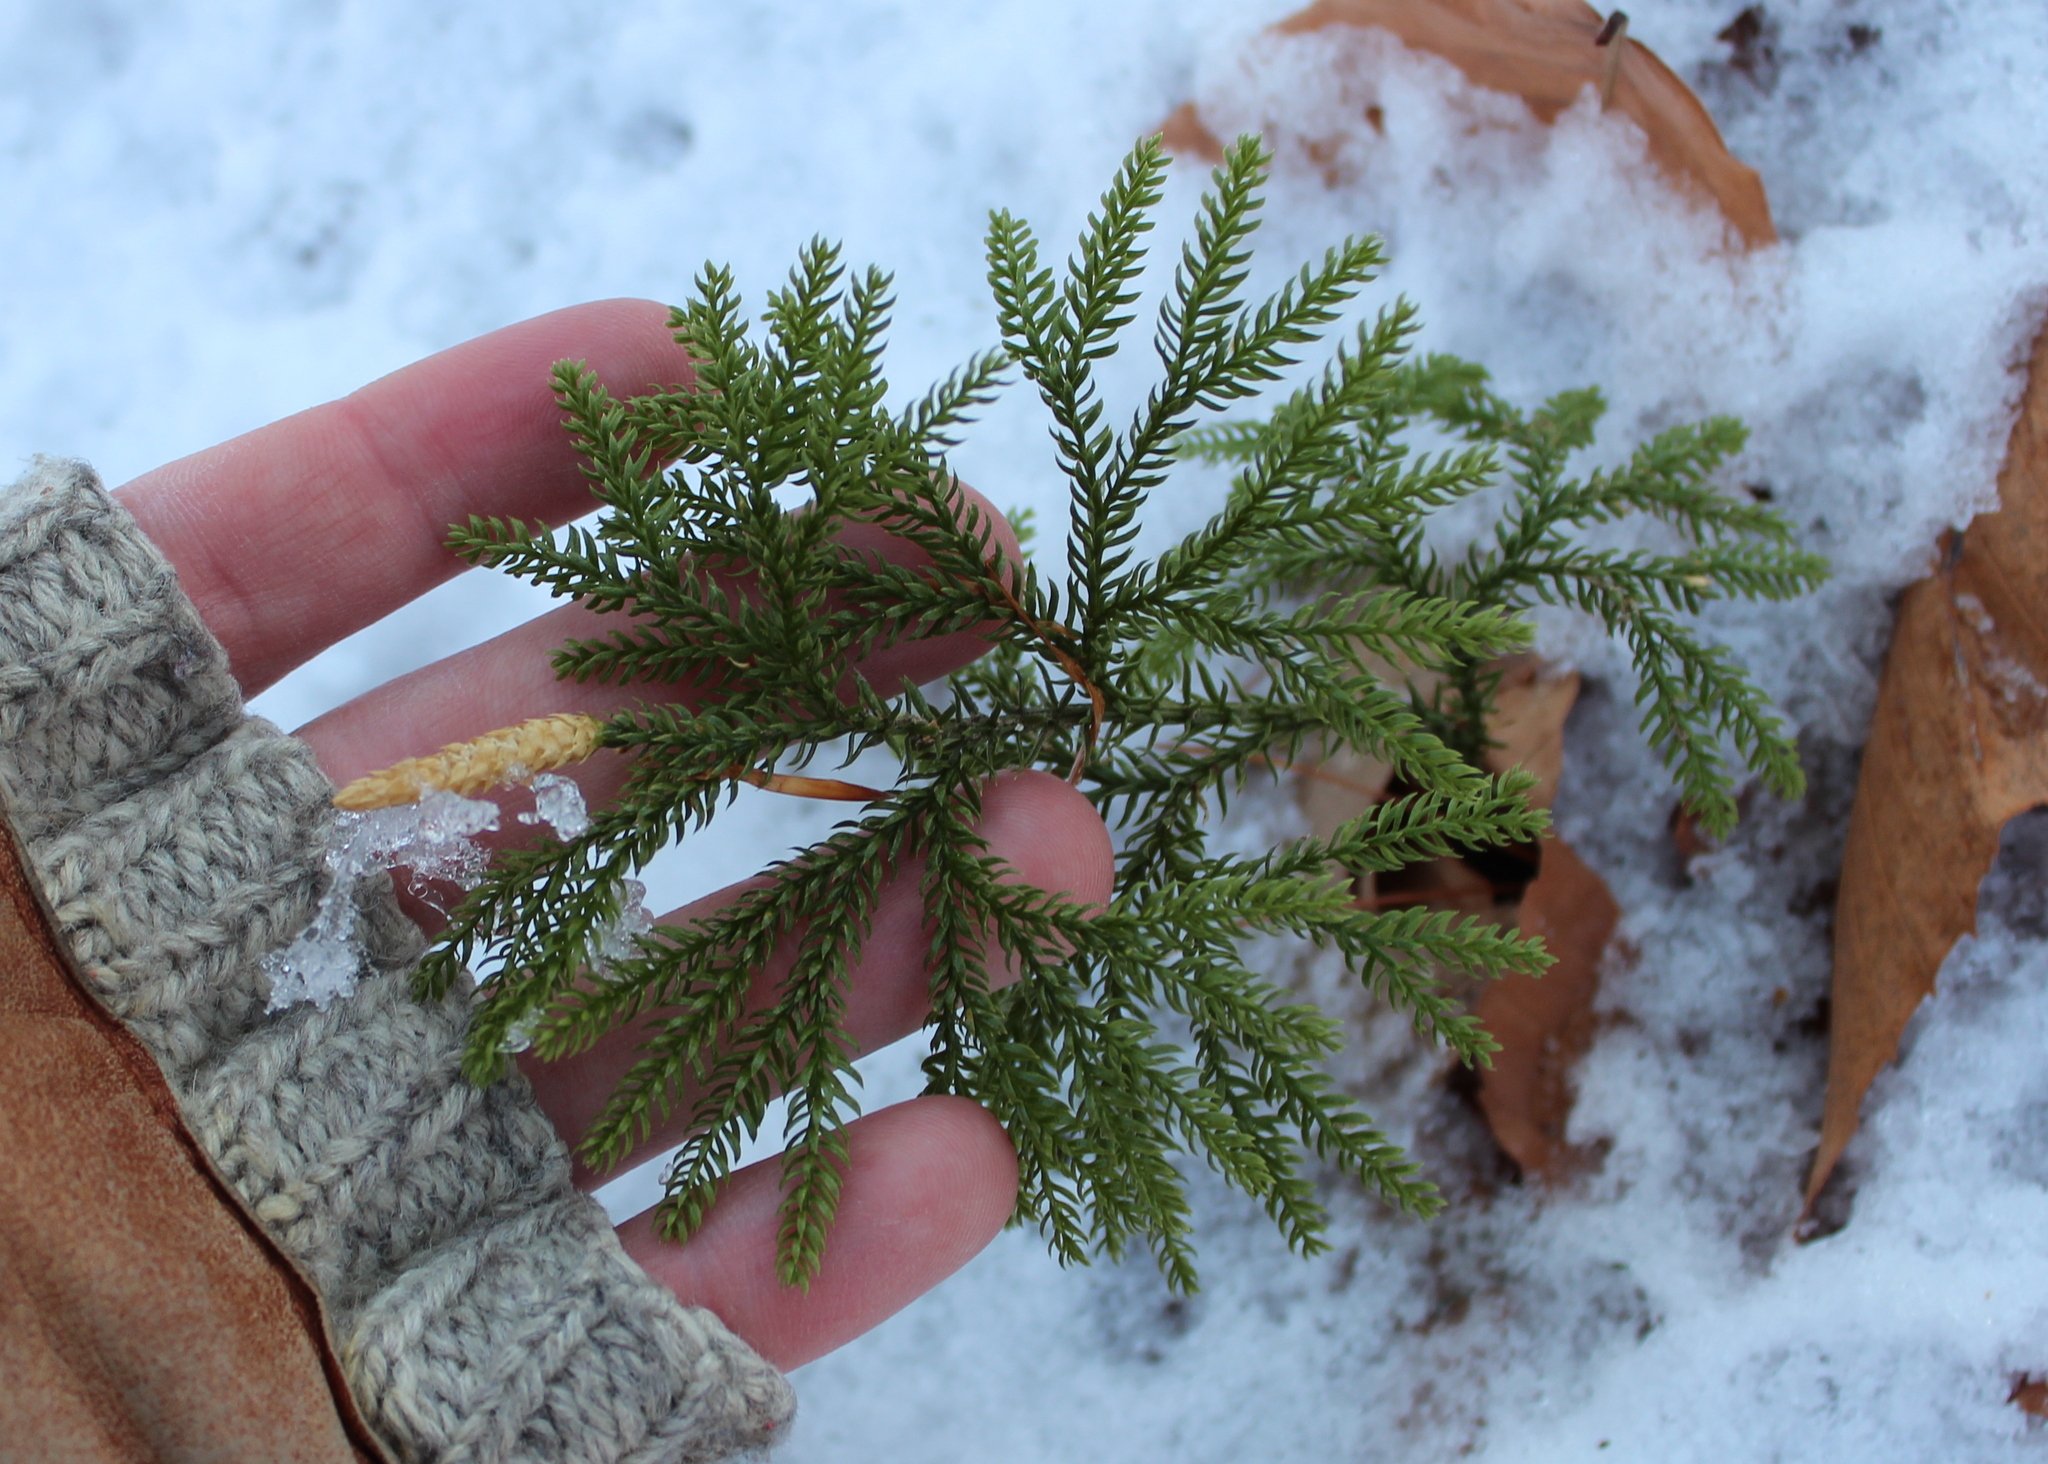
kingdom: Plantae
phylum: Tracheophyta
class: Lycopodiopsida
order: Lycopodiales
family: Lycopodiaceae
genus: Dendrolycopodium
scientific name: Dendrolycopodium dendroideum
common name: Northern tree-clubmoss
